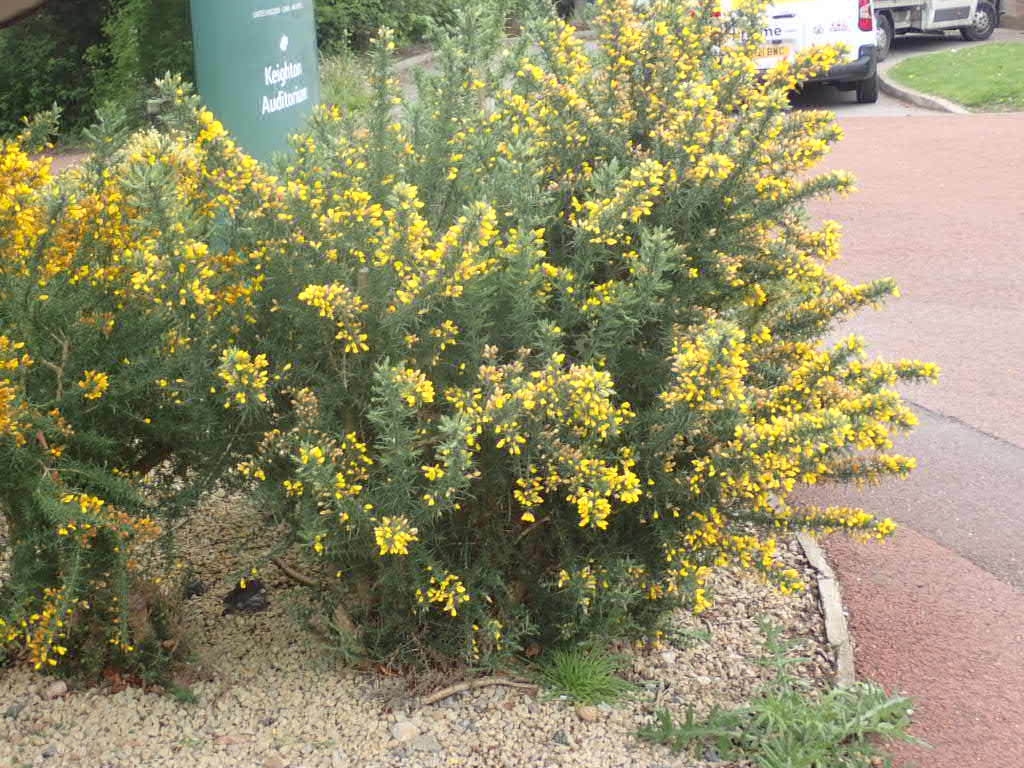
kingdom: Plantae
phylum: Tracheophyta
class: Magnoliopsida
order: Fabales
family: Fabaceae
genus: Ulex
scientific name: Ulex europaeus
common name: Common gorse
